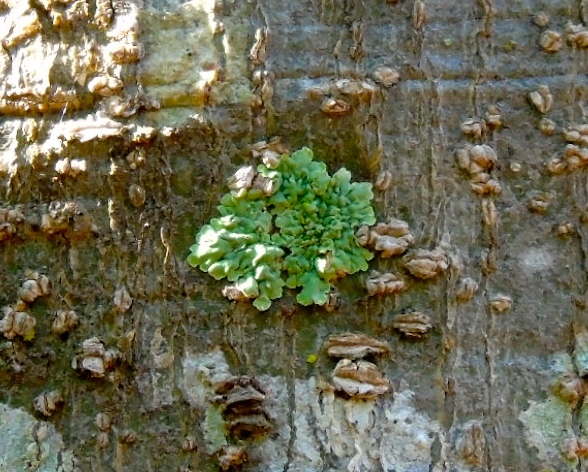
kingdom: Fungi
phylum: Ascomycota
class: Lecanoromycetes
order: Caliciales
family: Caliciaceae
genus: Pyxine
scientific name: Pyxine
